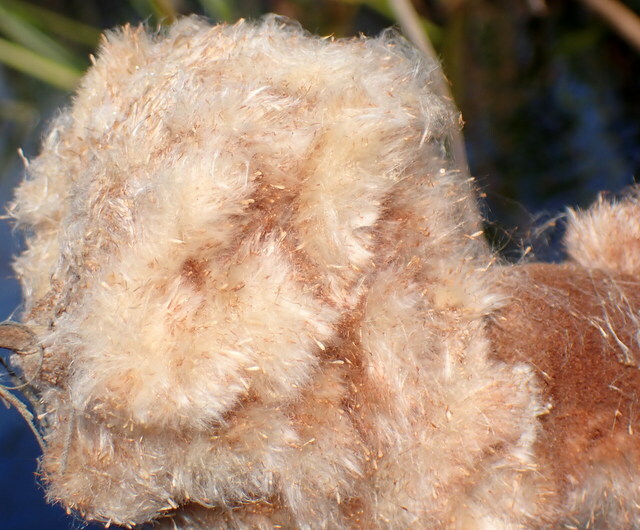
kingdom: Plantae
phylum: Tracheophyta
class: Liliopsida
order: Poales
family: Typhaceae
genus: Typha
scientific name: Typha latifolia
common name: Broadleaf cattail
